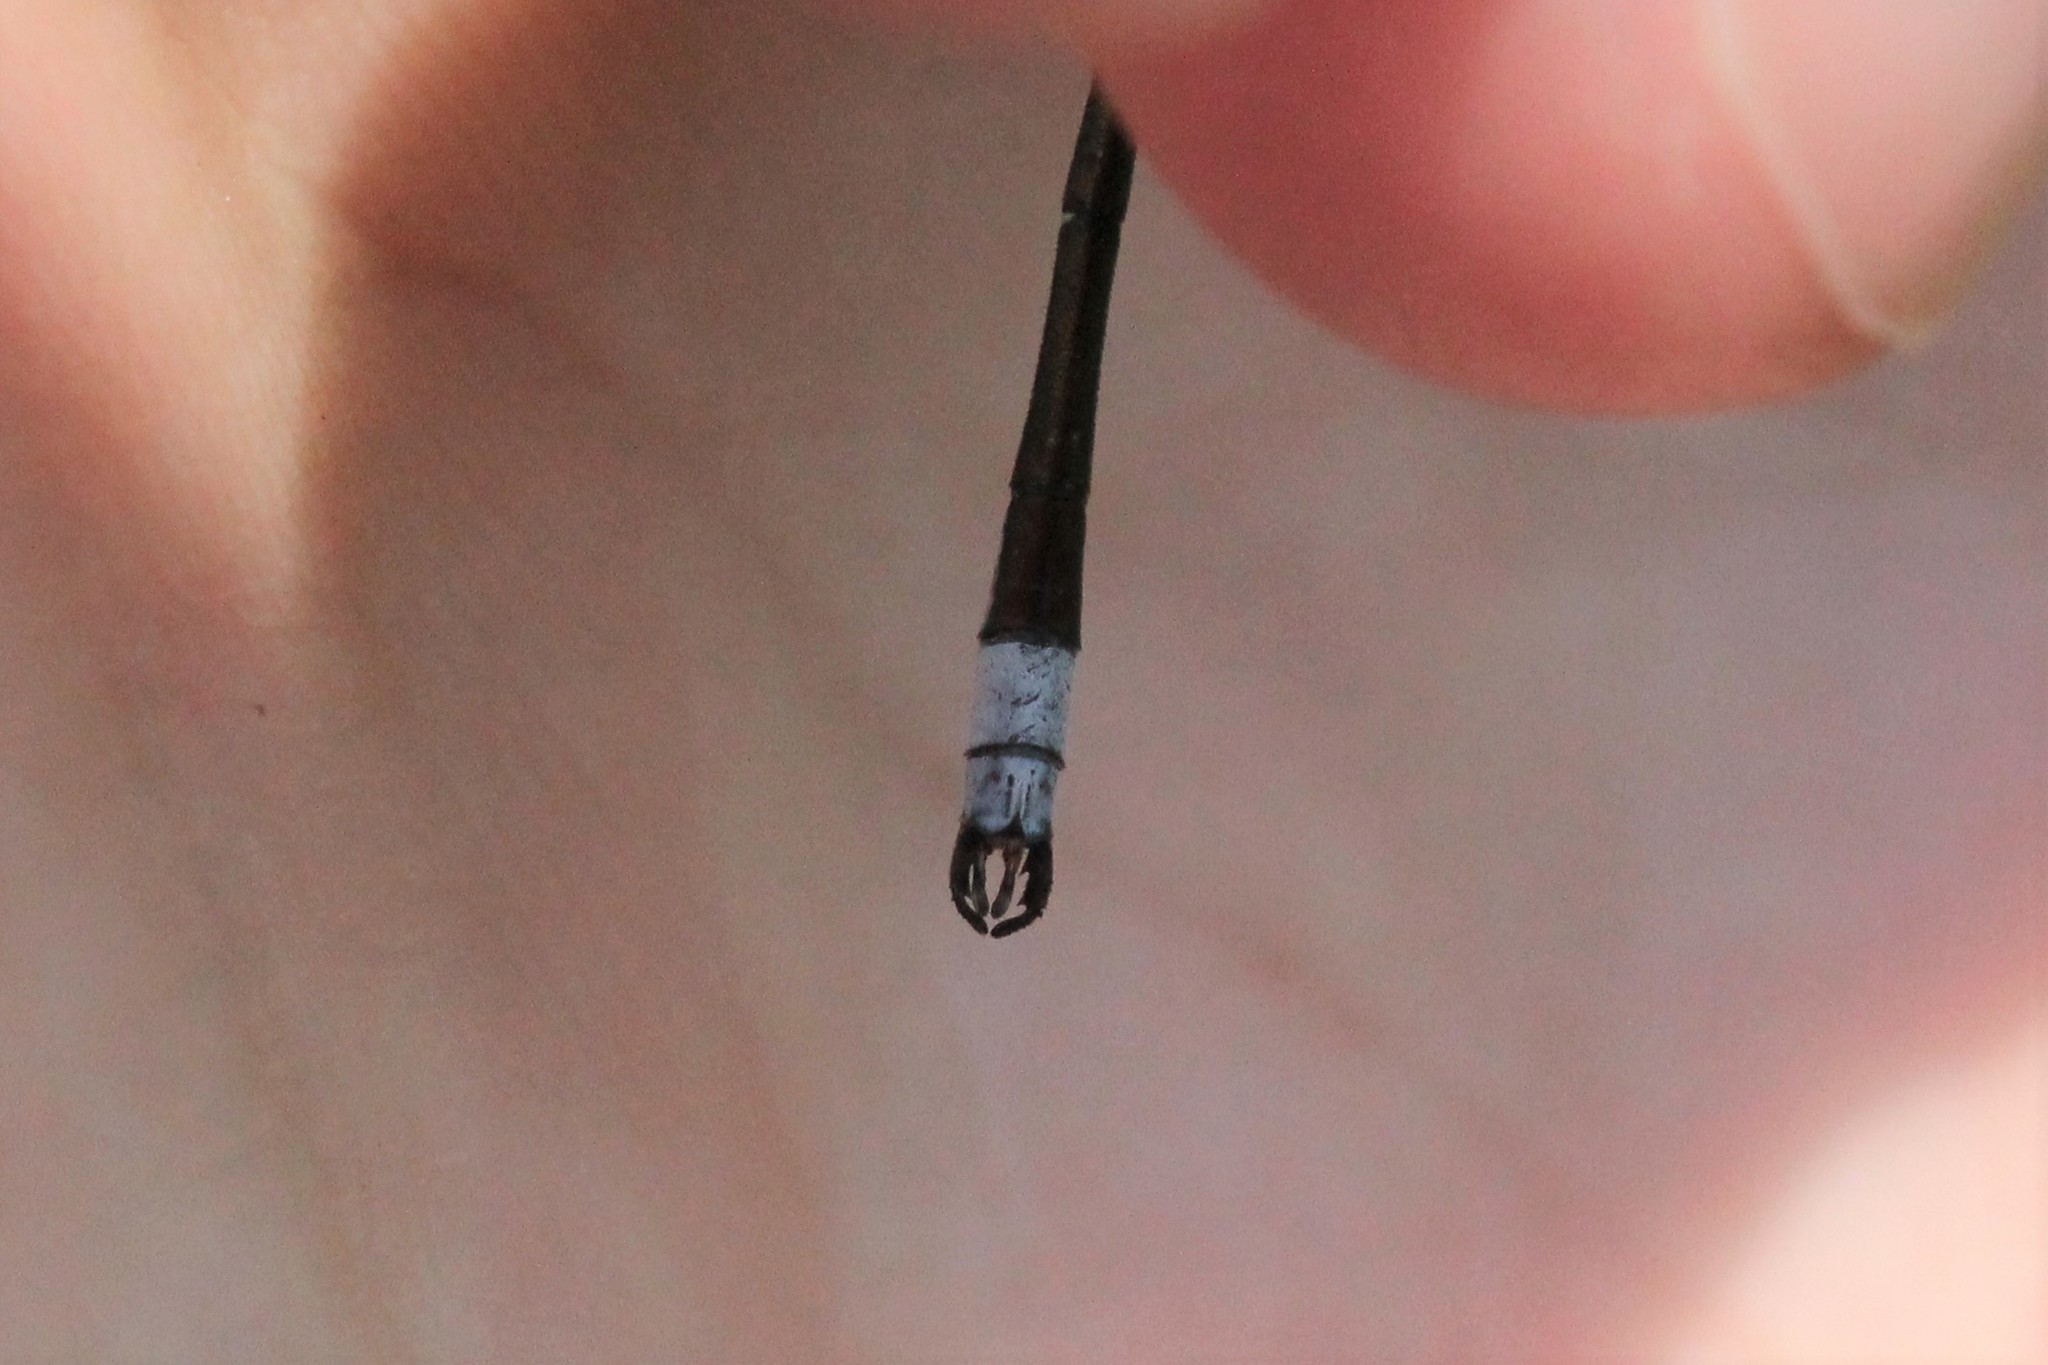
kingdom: Animalia
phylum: Arthropoda
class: Insecta
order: Odonata
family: Lestidae
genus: Lestes
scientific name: Lestes disjunctus
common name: Northern spreadwing
